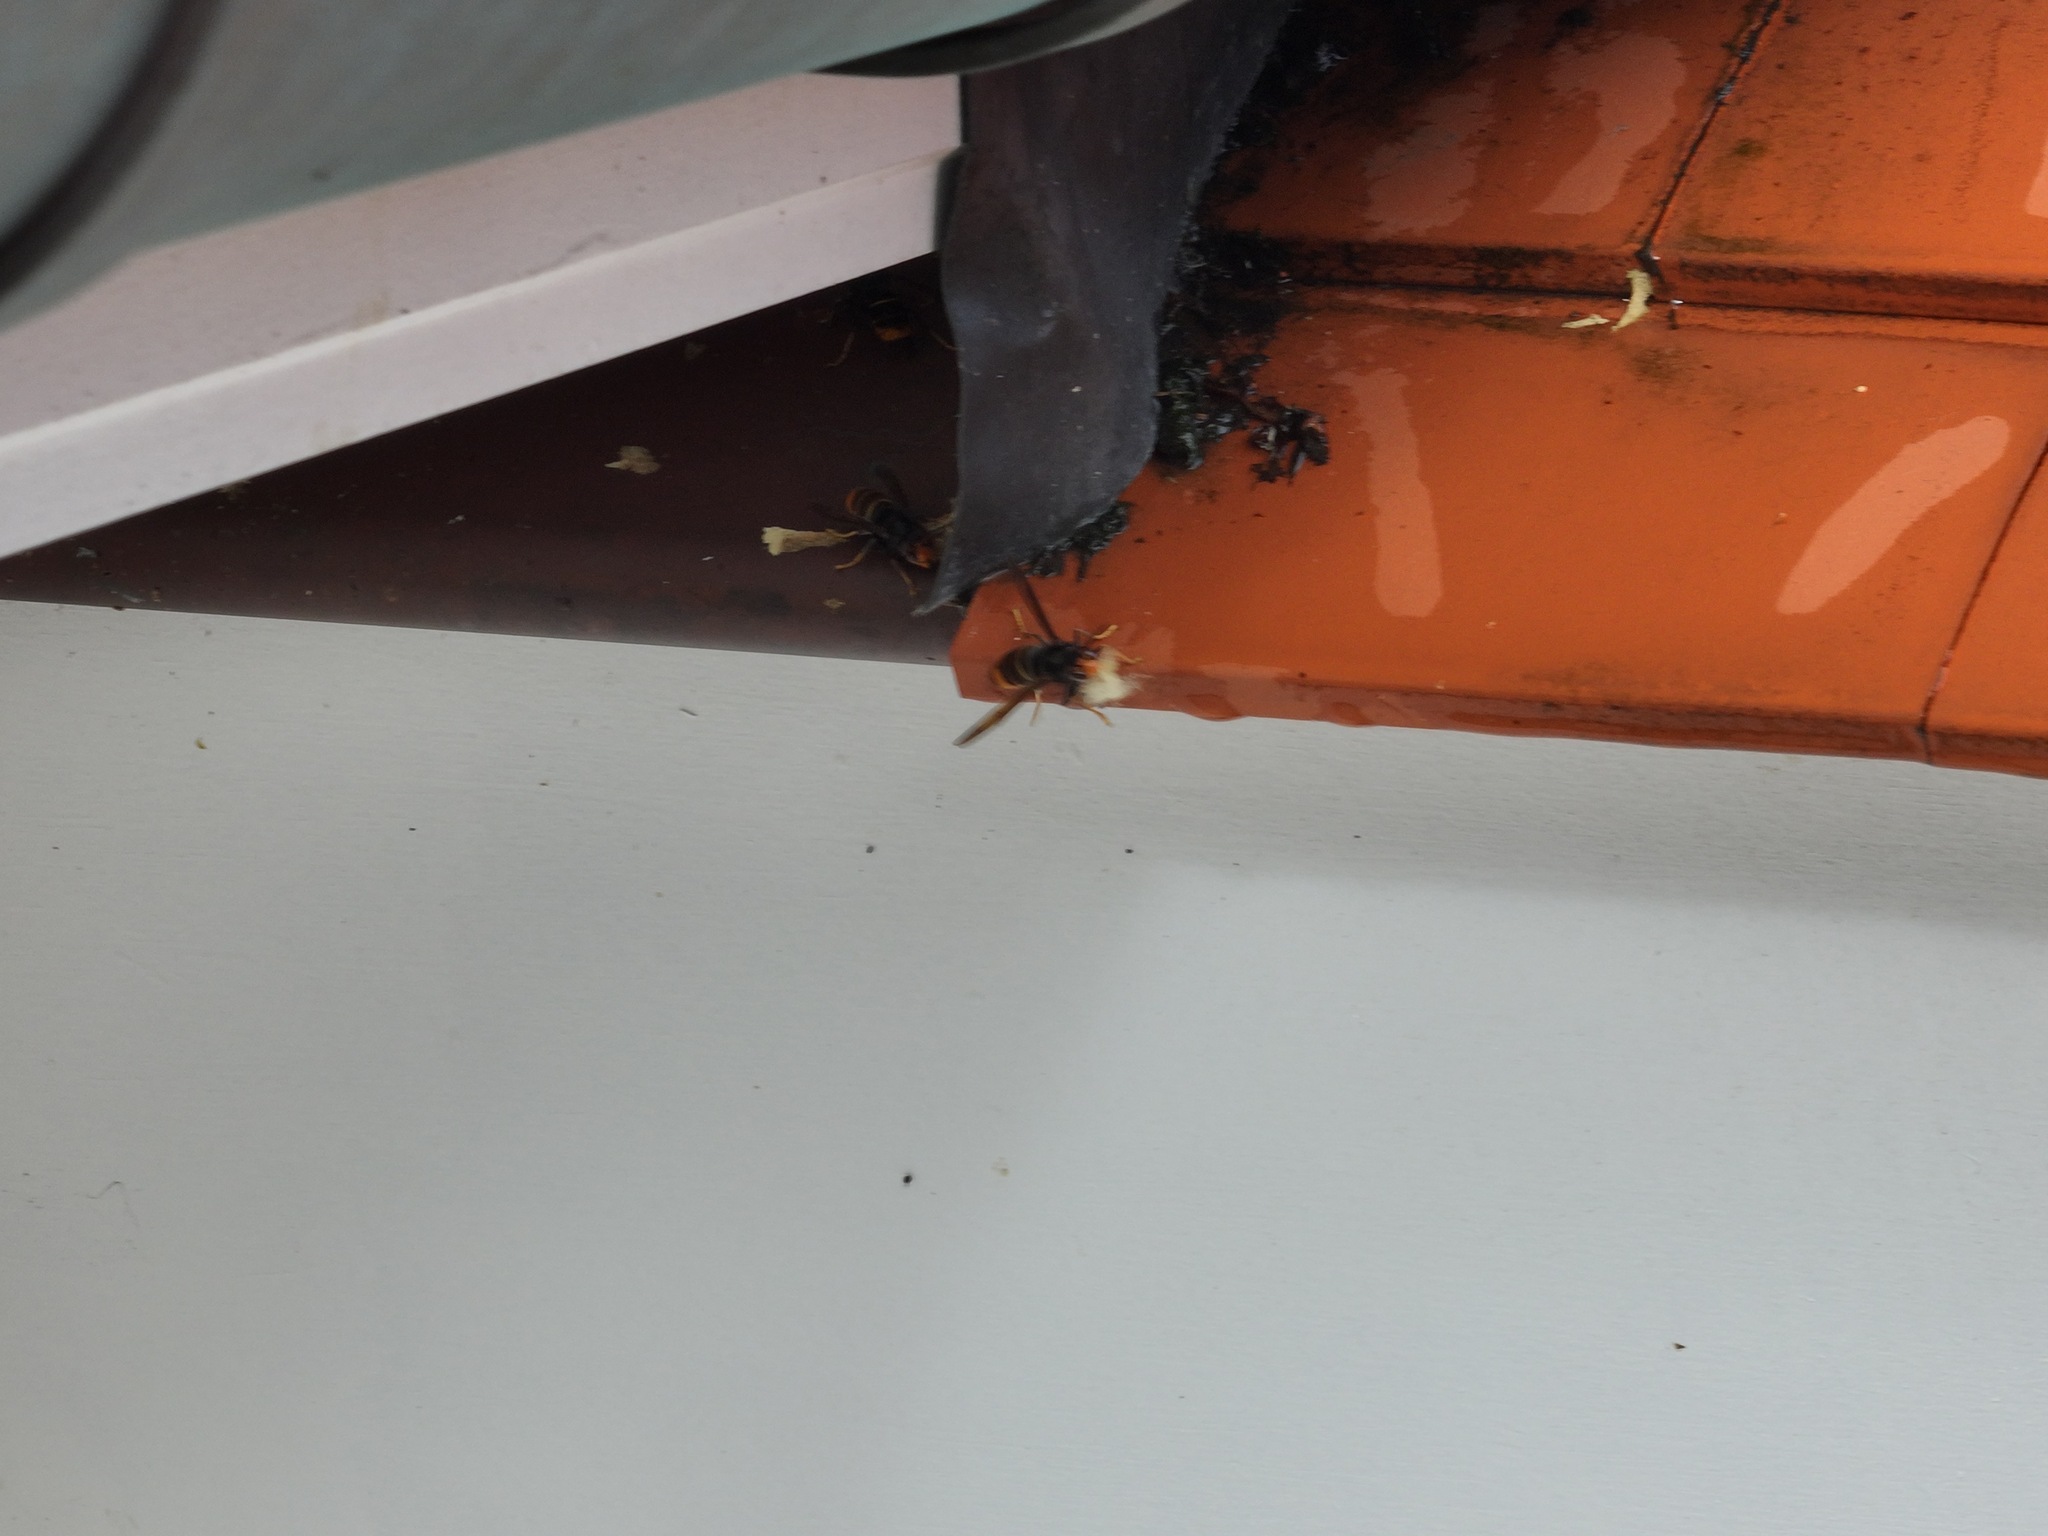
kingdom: Animalia
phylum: Arthropoda
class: Insecta
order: Hymenoptera
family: Vespidae
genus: Vespa
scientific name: Vespa velutina
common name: Asian hornet
